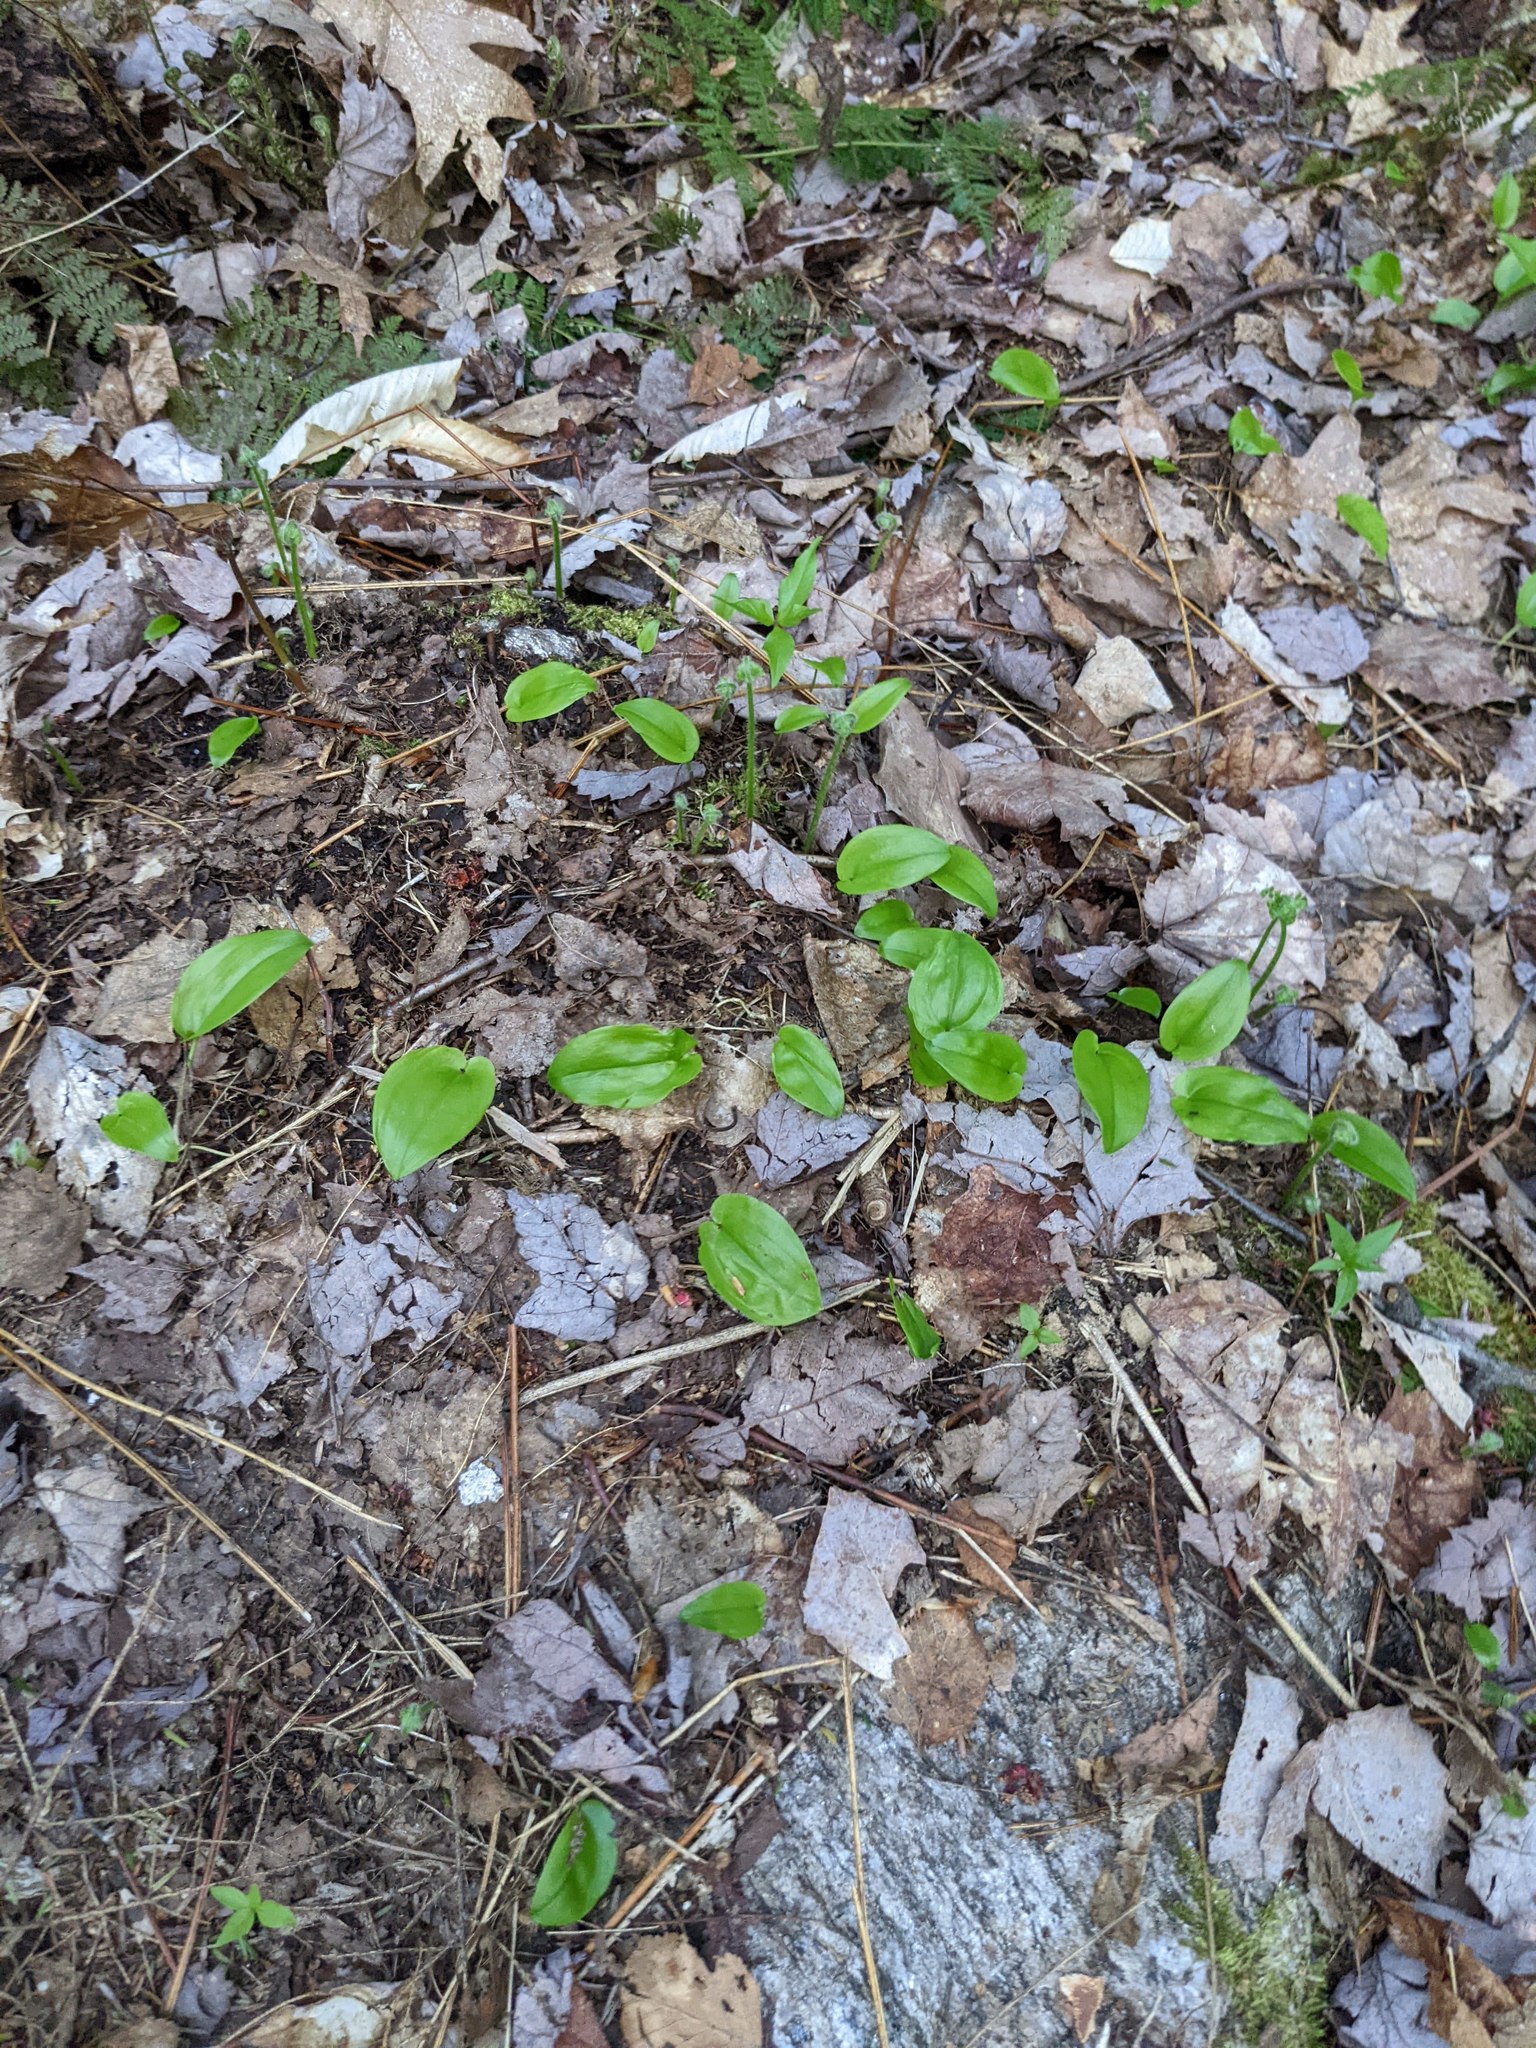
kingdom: Plantae
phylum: Tracheophyta
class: Liliopsida
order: Asparagales
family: Asparagaceae
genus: Maianthemum
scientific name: Maianthemum canadense
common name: False lily-of-the-valley
